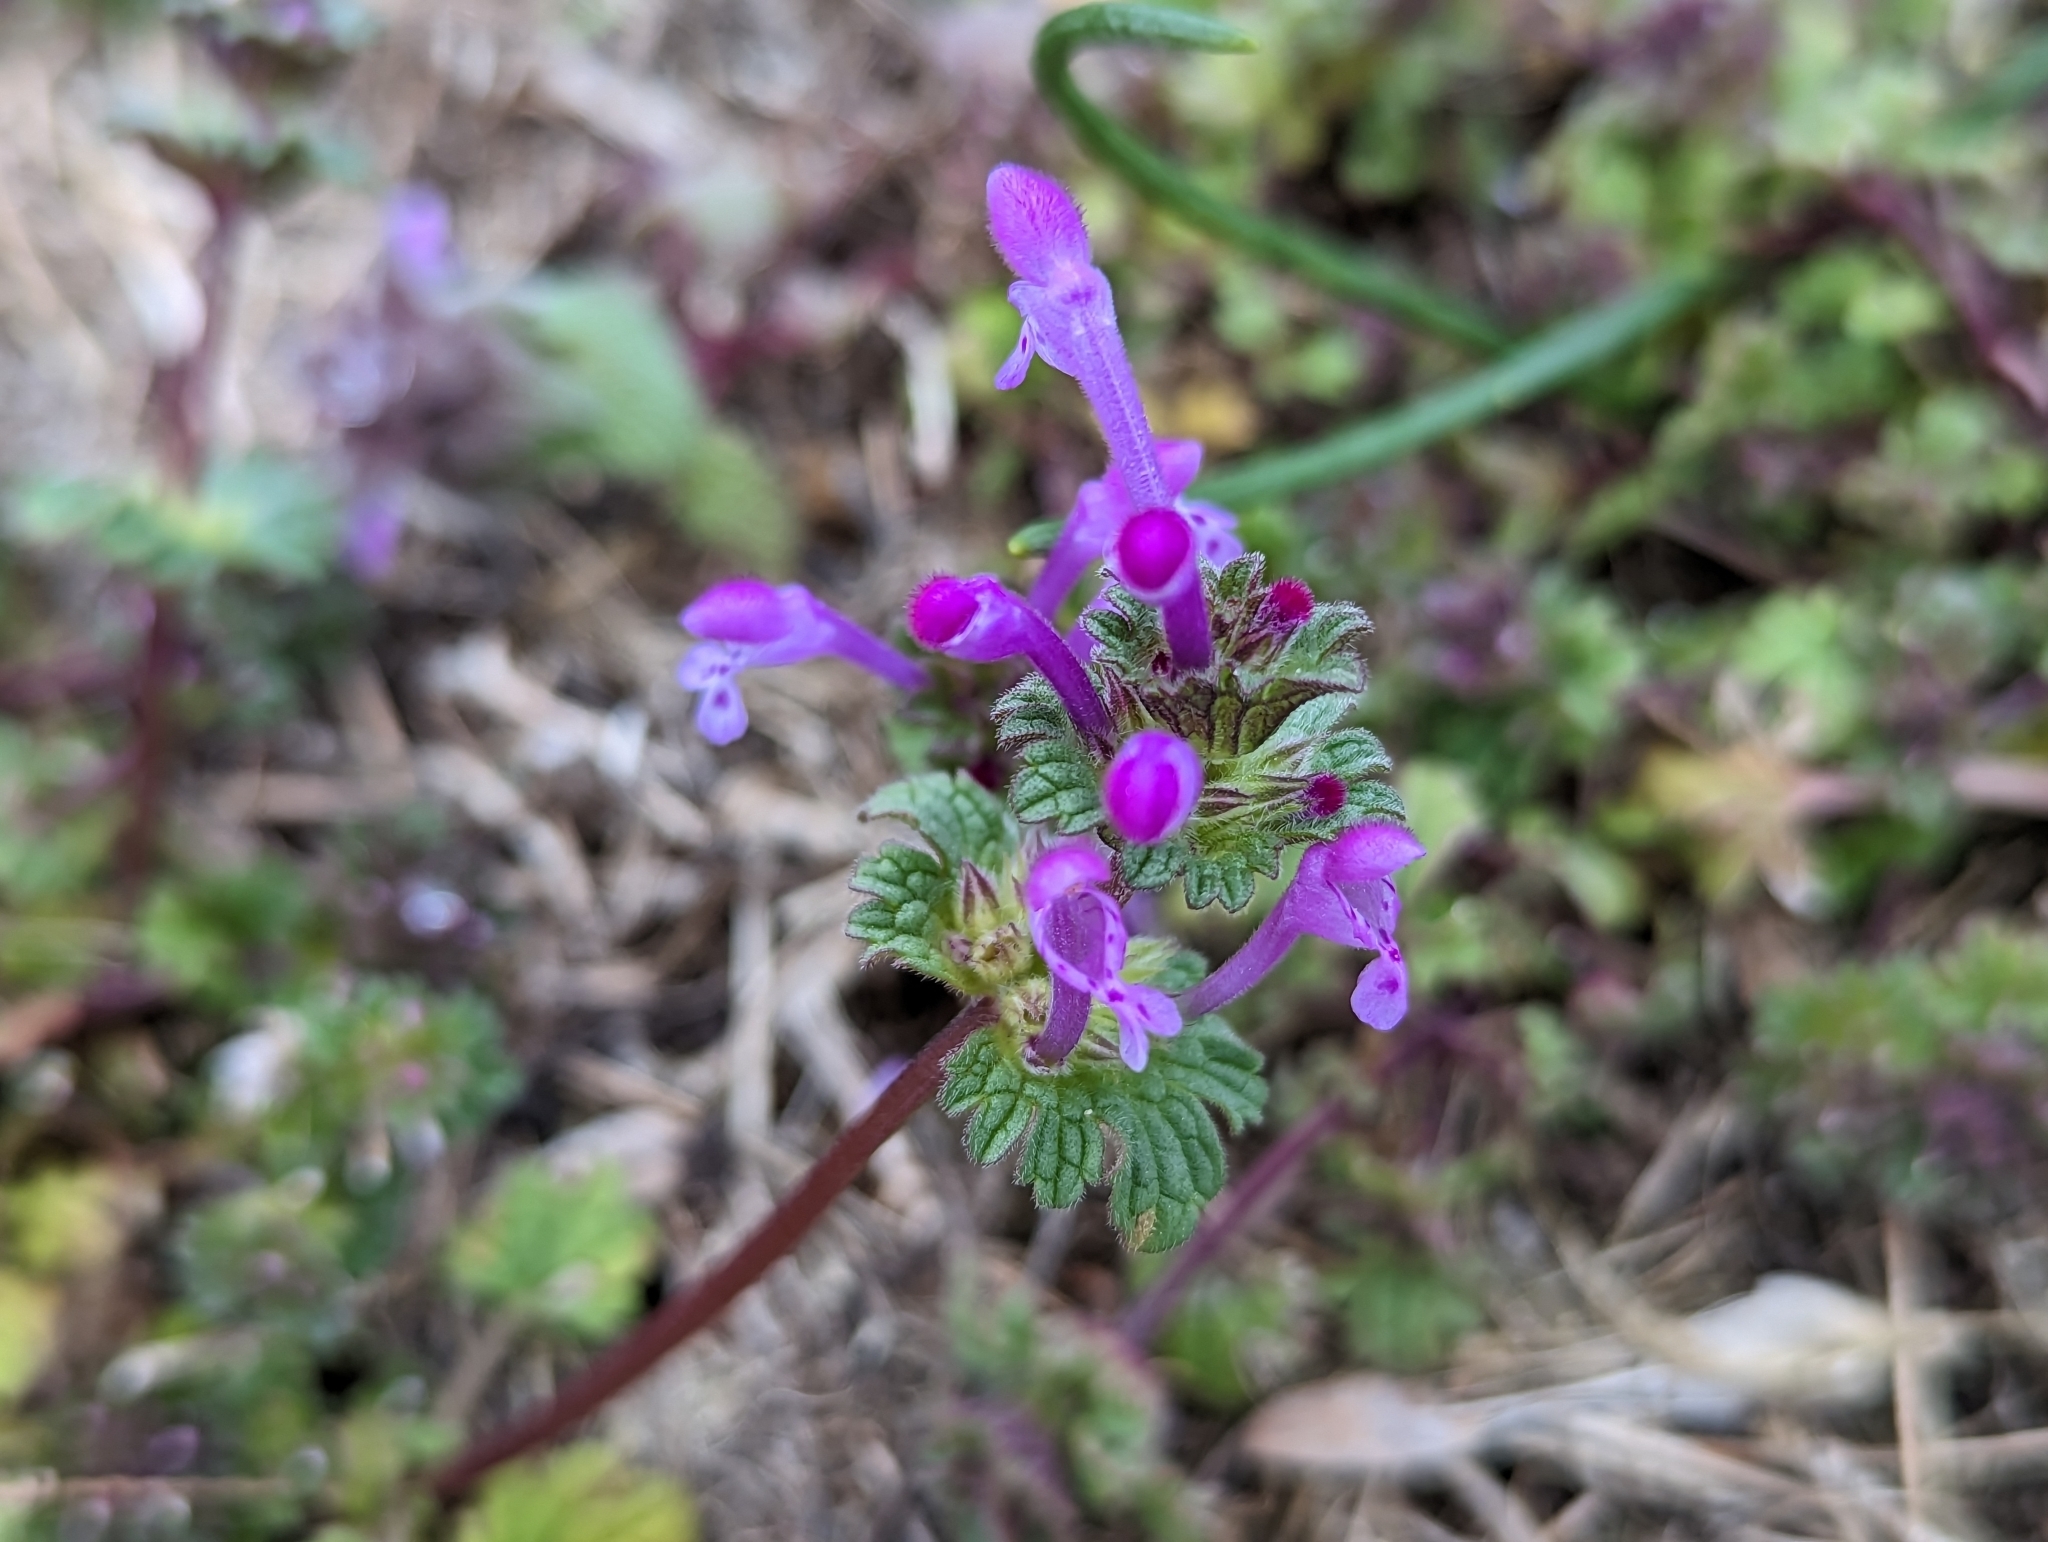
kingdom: Plantae
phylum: Tracheophyta
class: Magnoliopsida
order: Lamiales
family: Lamiaceae
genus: Lamium
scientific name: Lamium amplexicaule
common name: Henbit dead-nettle
